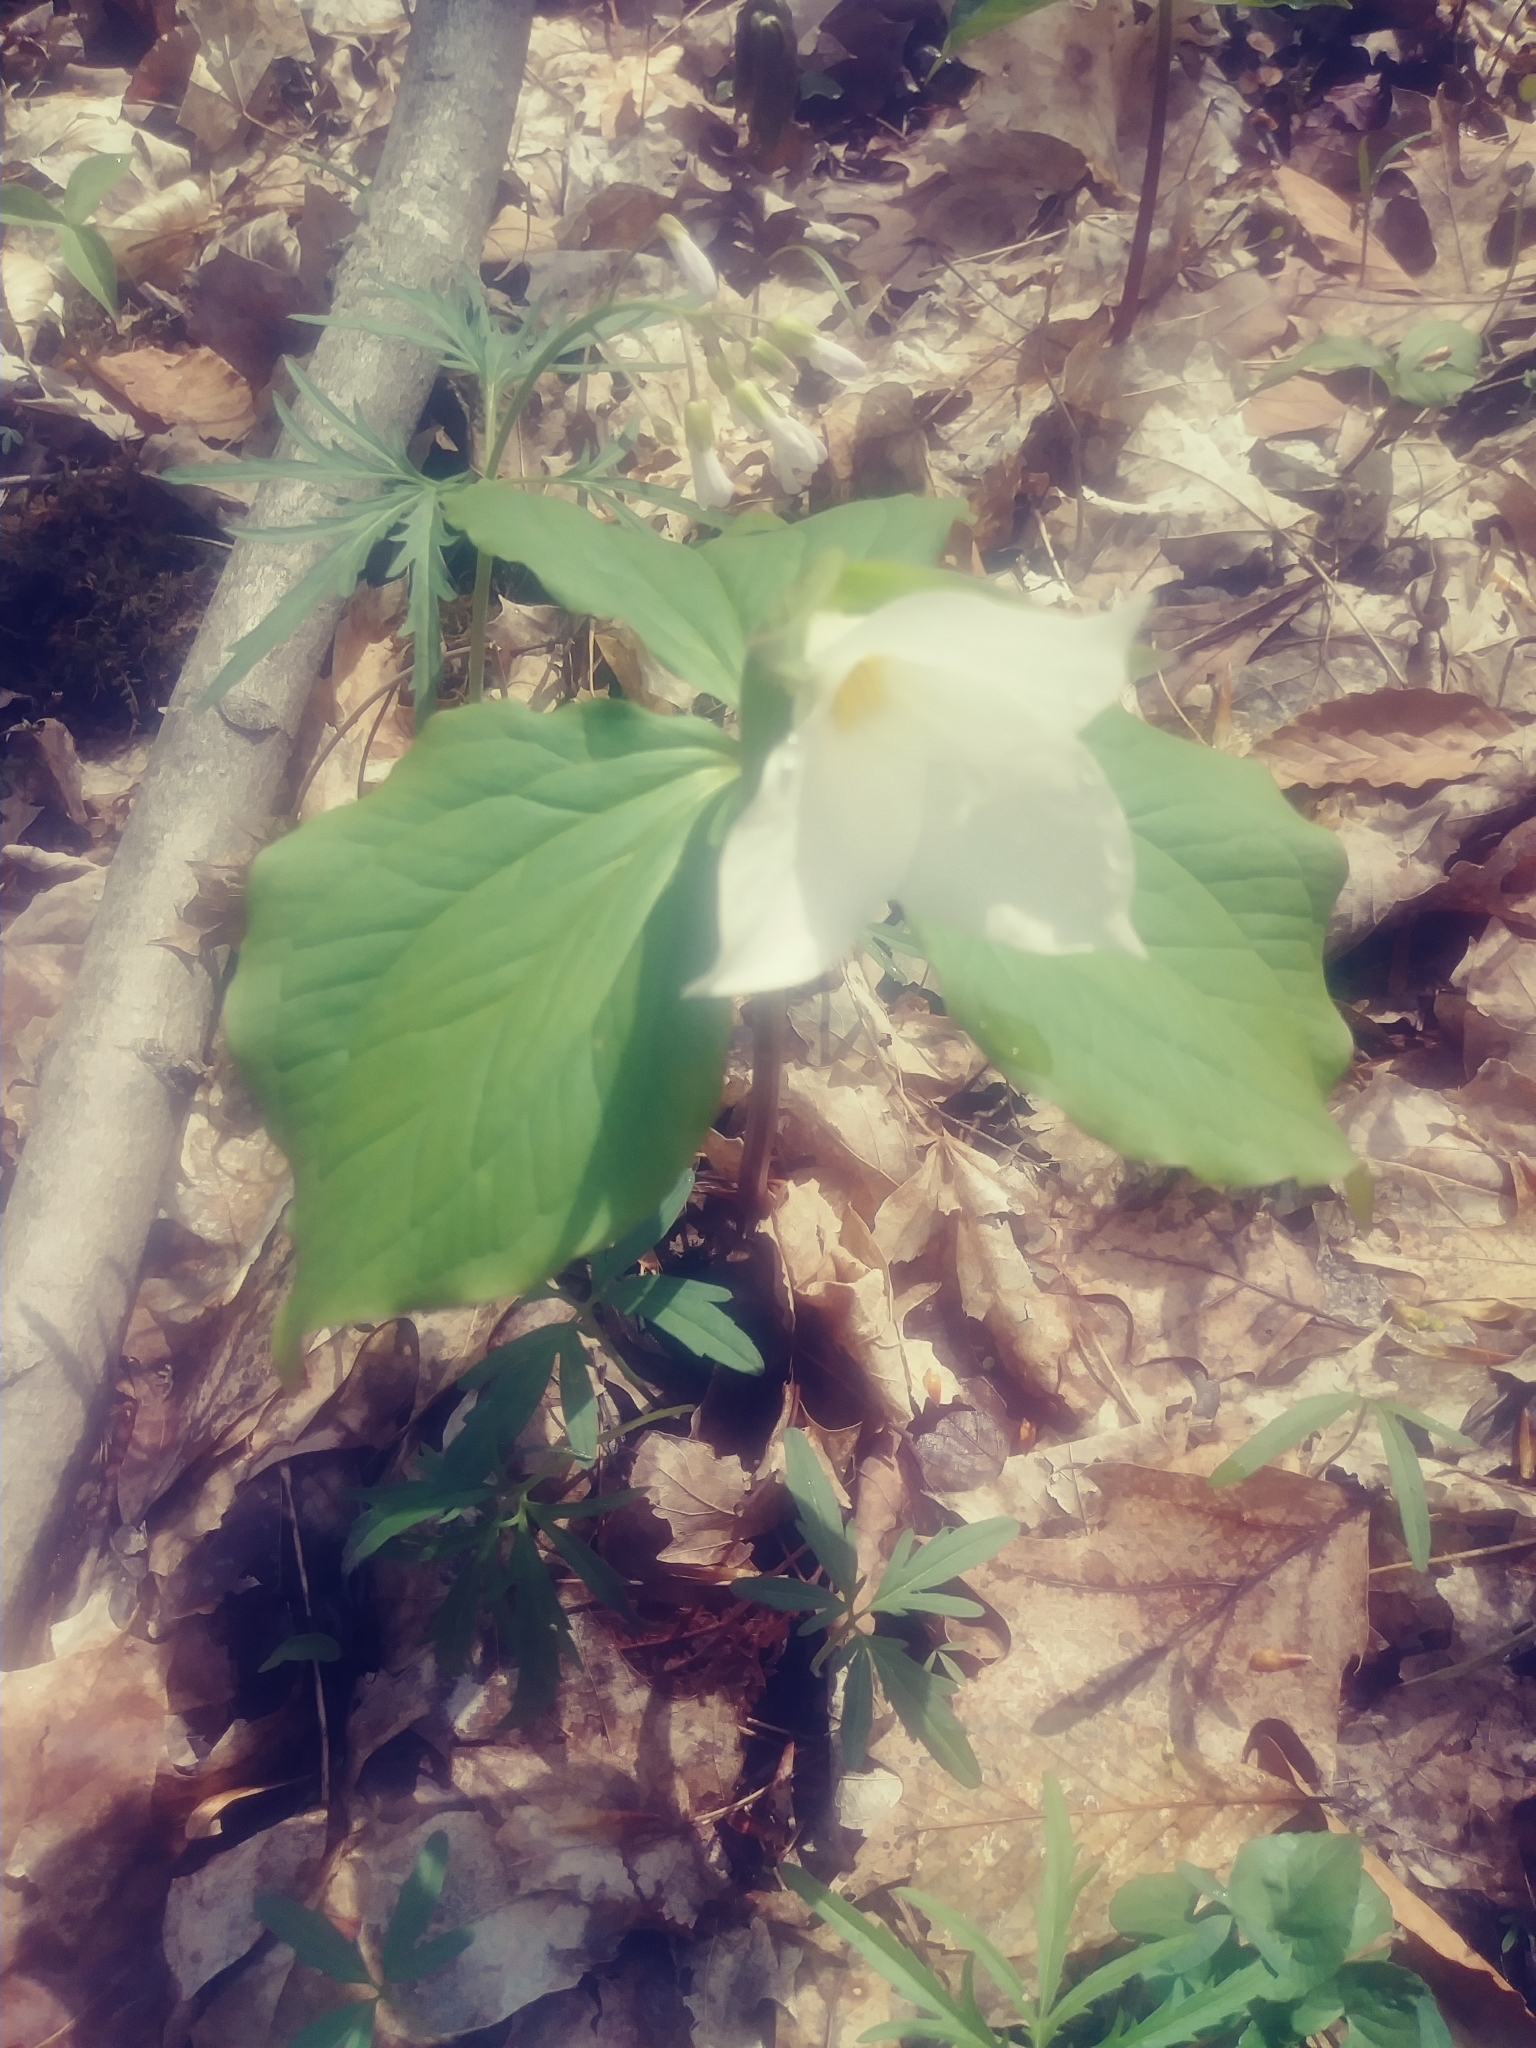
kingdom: Plantae
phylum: Tracheophyta
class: Liliopsida
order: Liliales
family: Melanthiaceae
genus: Trillium
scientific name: Trillium grandiflorum
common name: Great white trillium
